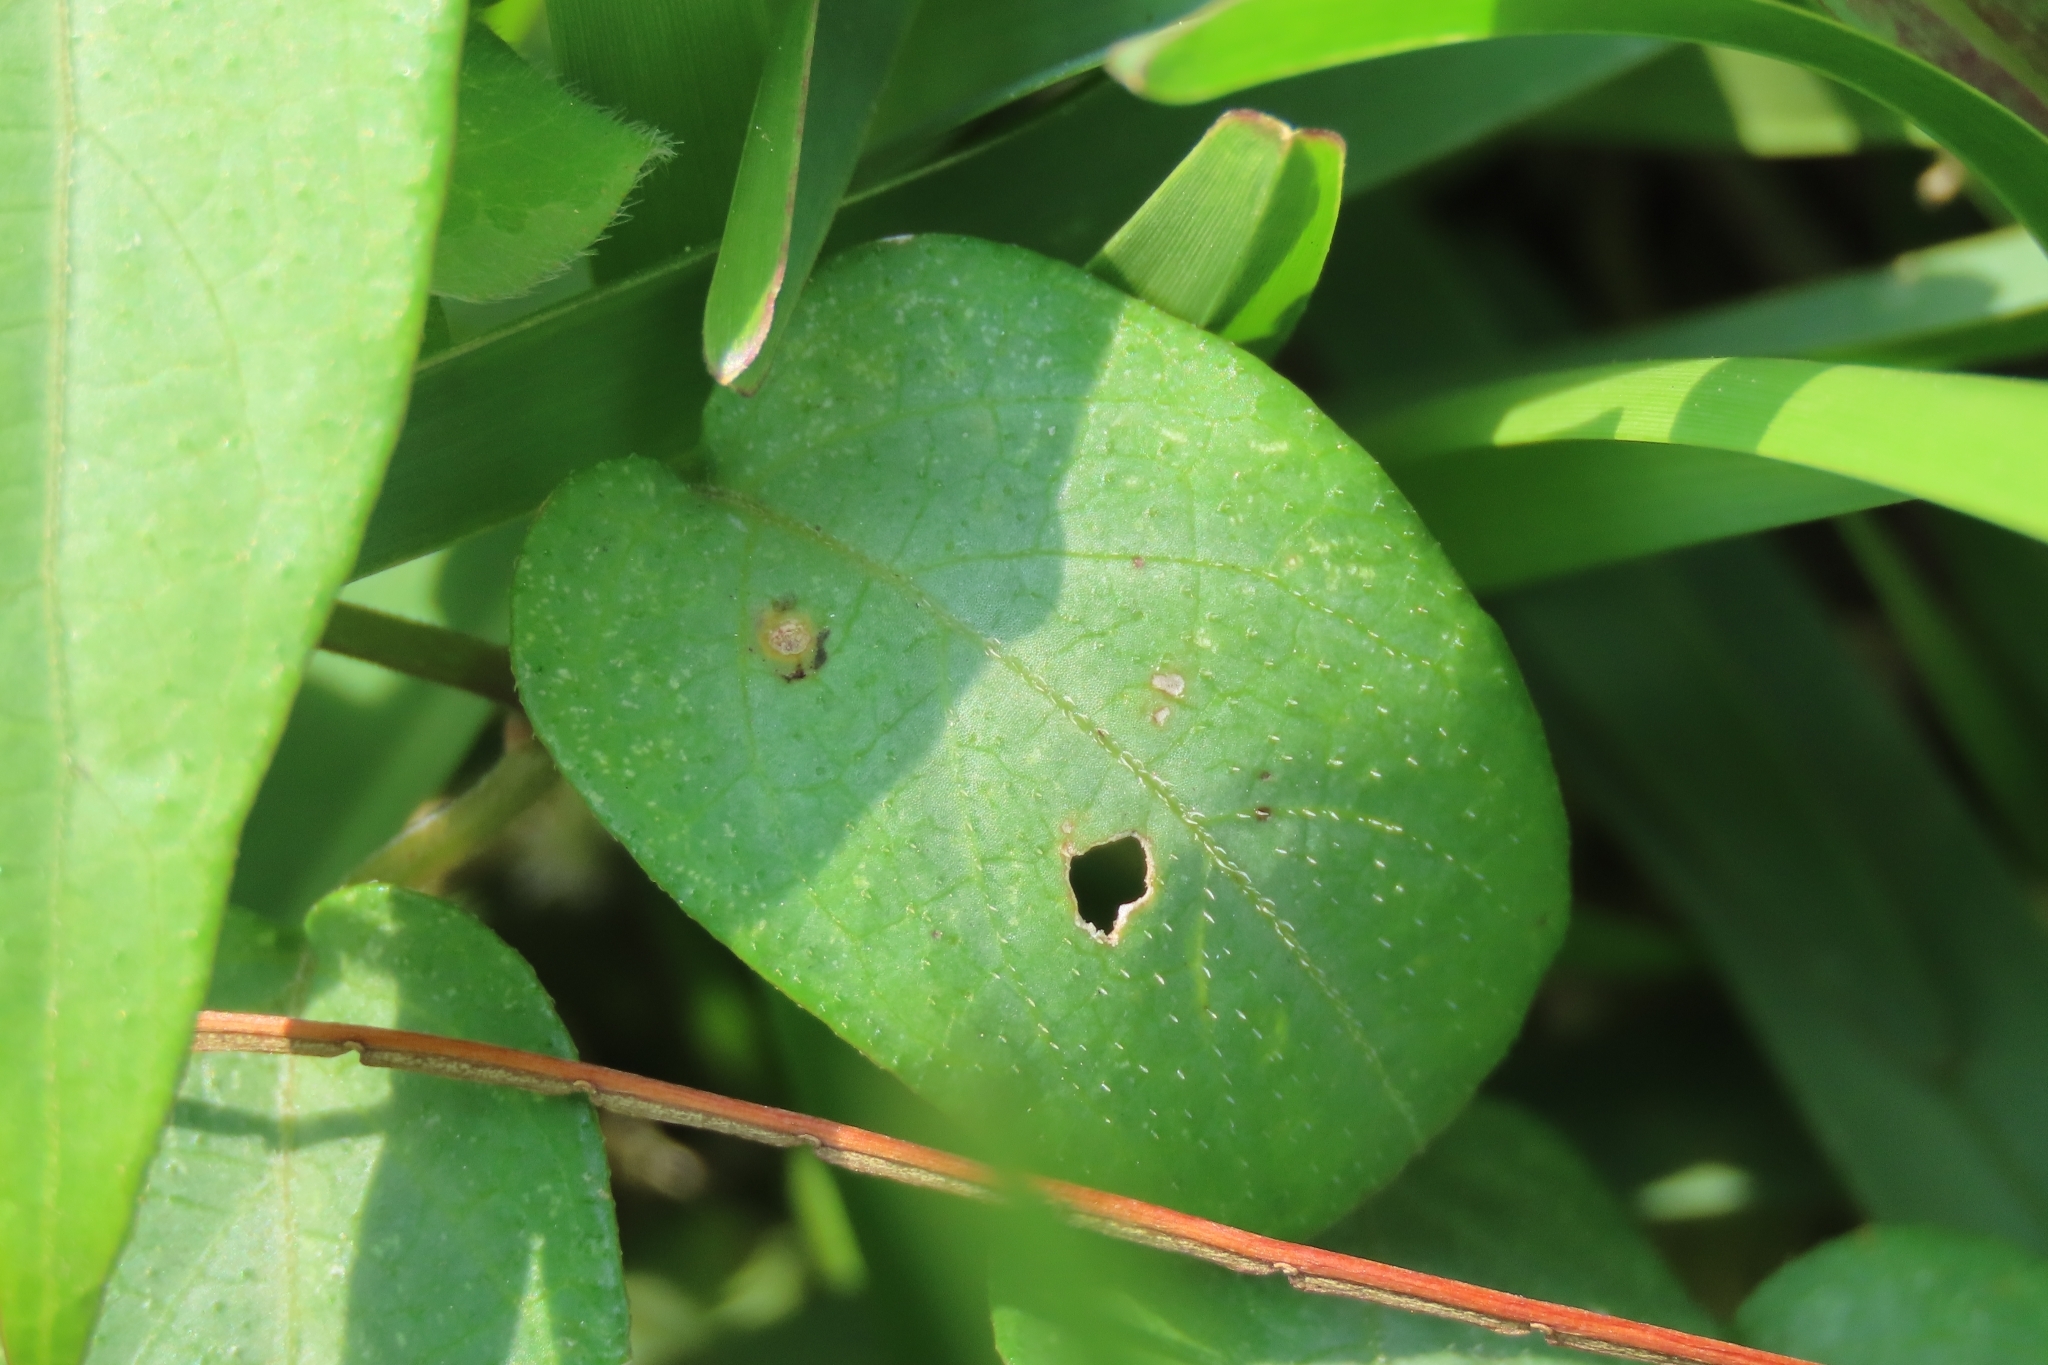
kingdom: Plantae
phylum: Tracheophyta
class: Magnoliopsida
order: Gentianales
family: Rubiaceae
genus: Paederia
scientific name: Paederia cavaleriei
